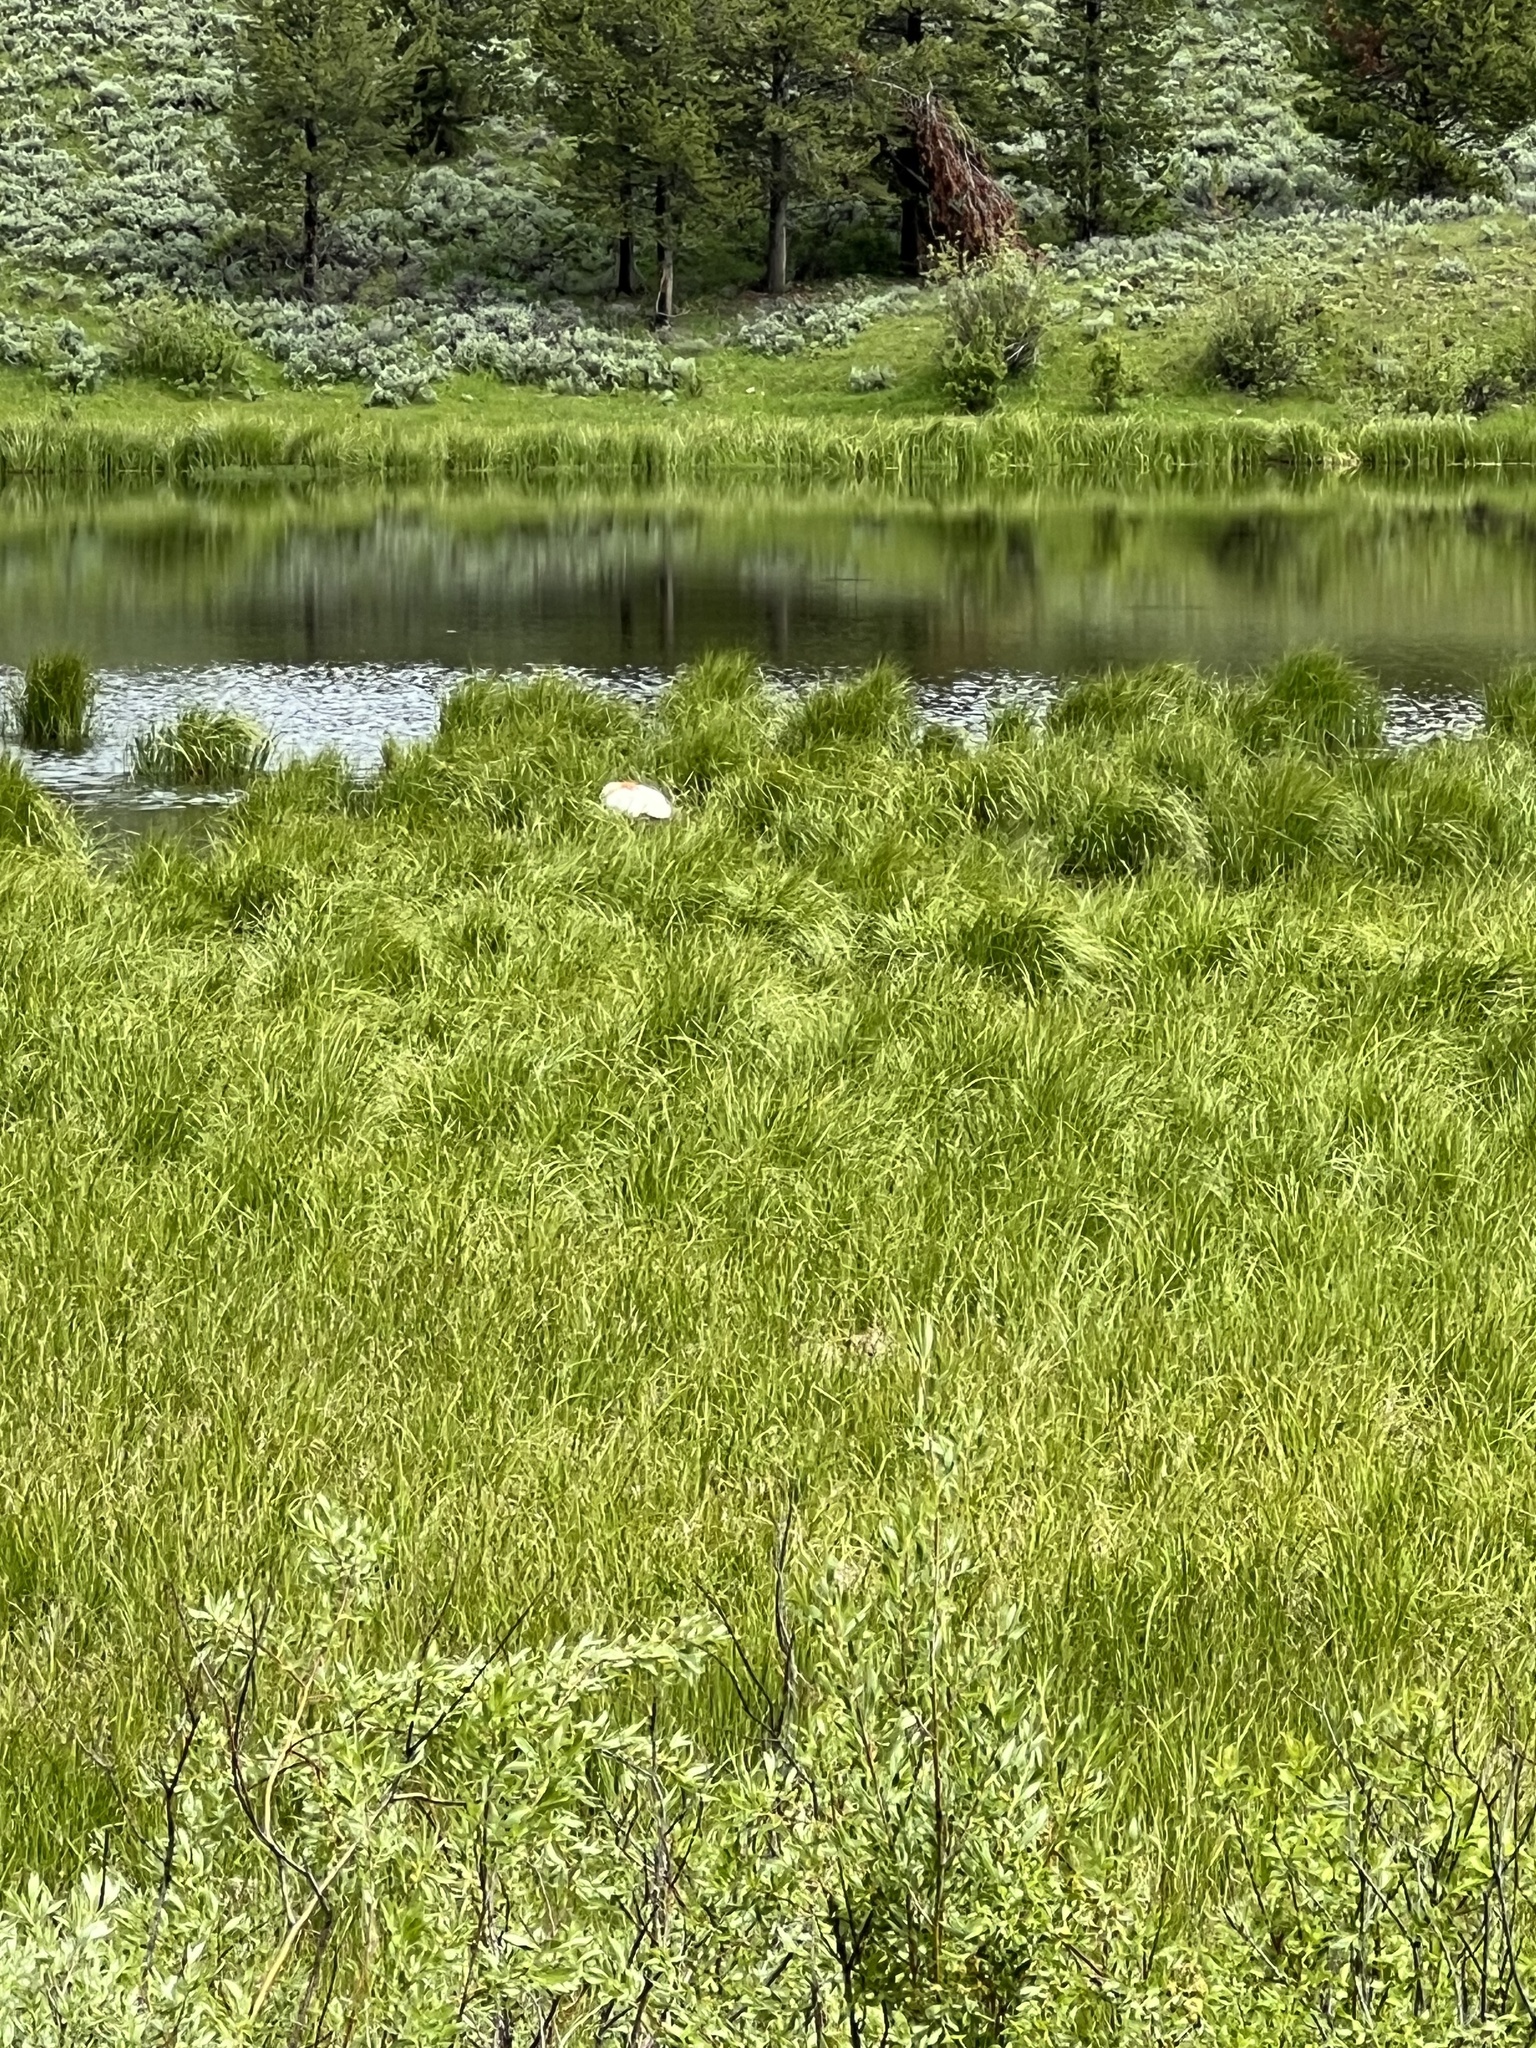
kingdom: Animalia
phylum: Chordata
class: Aves
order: Anseriformes
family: Anatidae
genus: Cygnus
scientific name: Cygnus buccinator
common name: Trumpeter swan
